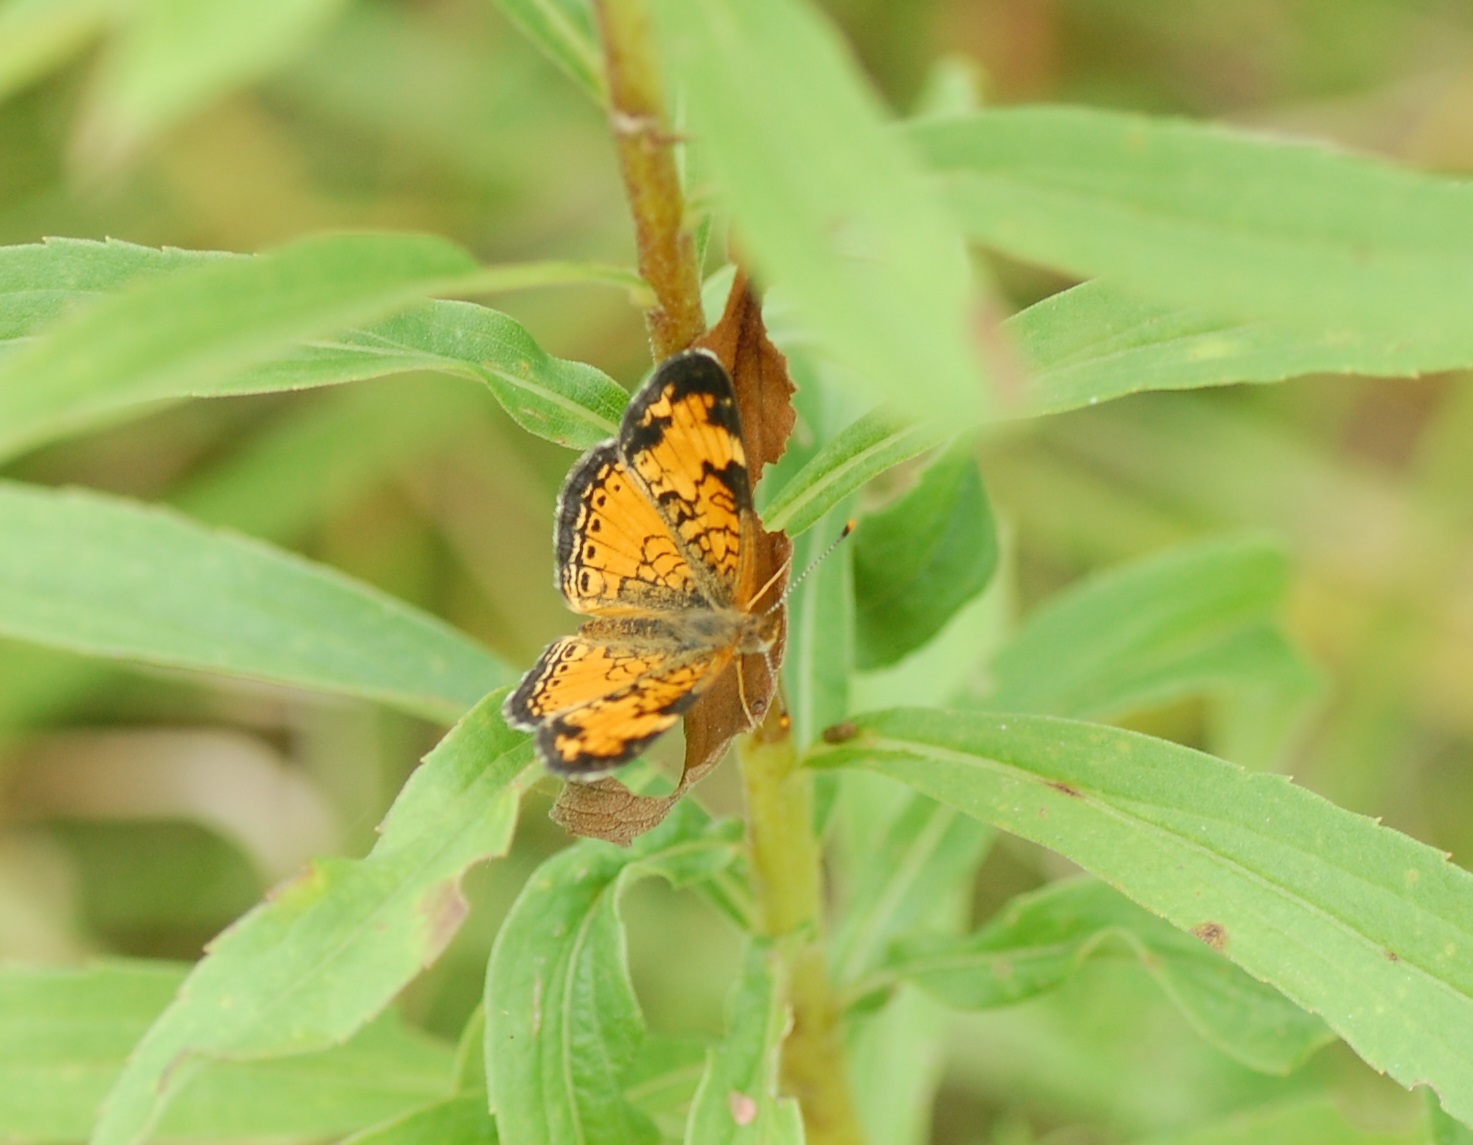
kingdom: Animalia
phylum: Arthropoda
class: Insecta
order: Lepidoptera
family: Nymphalidae
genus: Phyciodes
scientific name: Phyciodes tharos
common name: Pearl crescent
